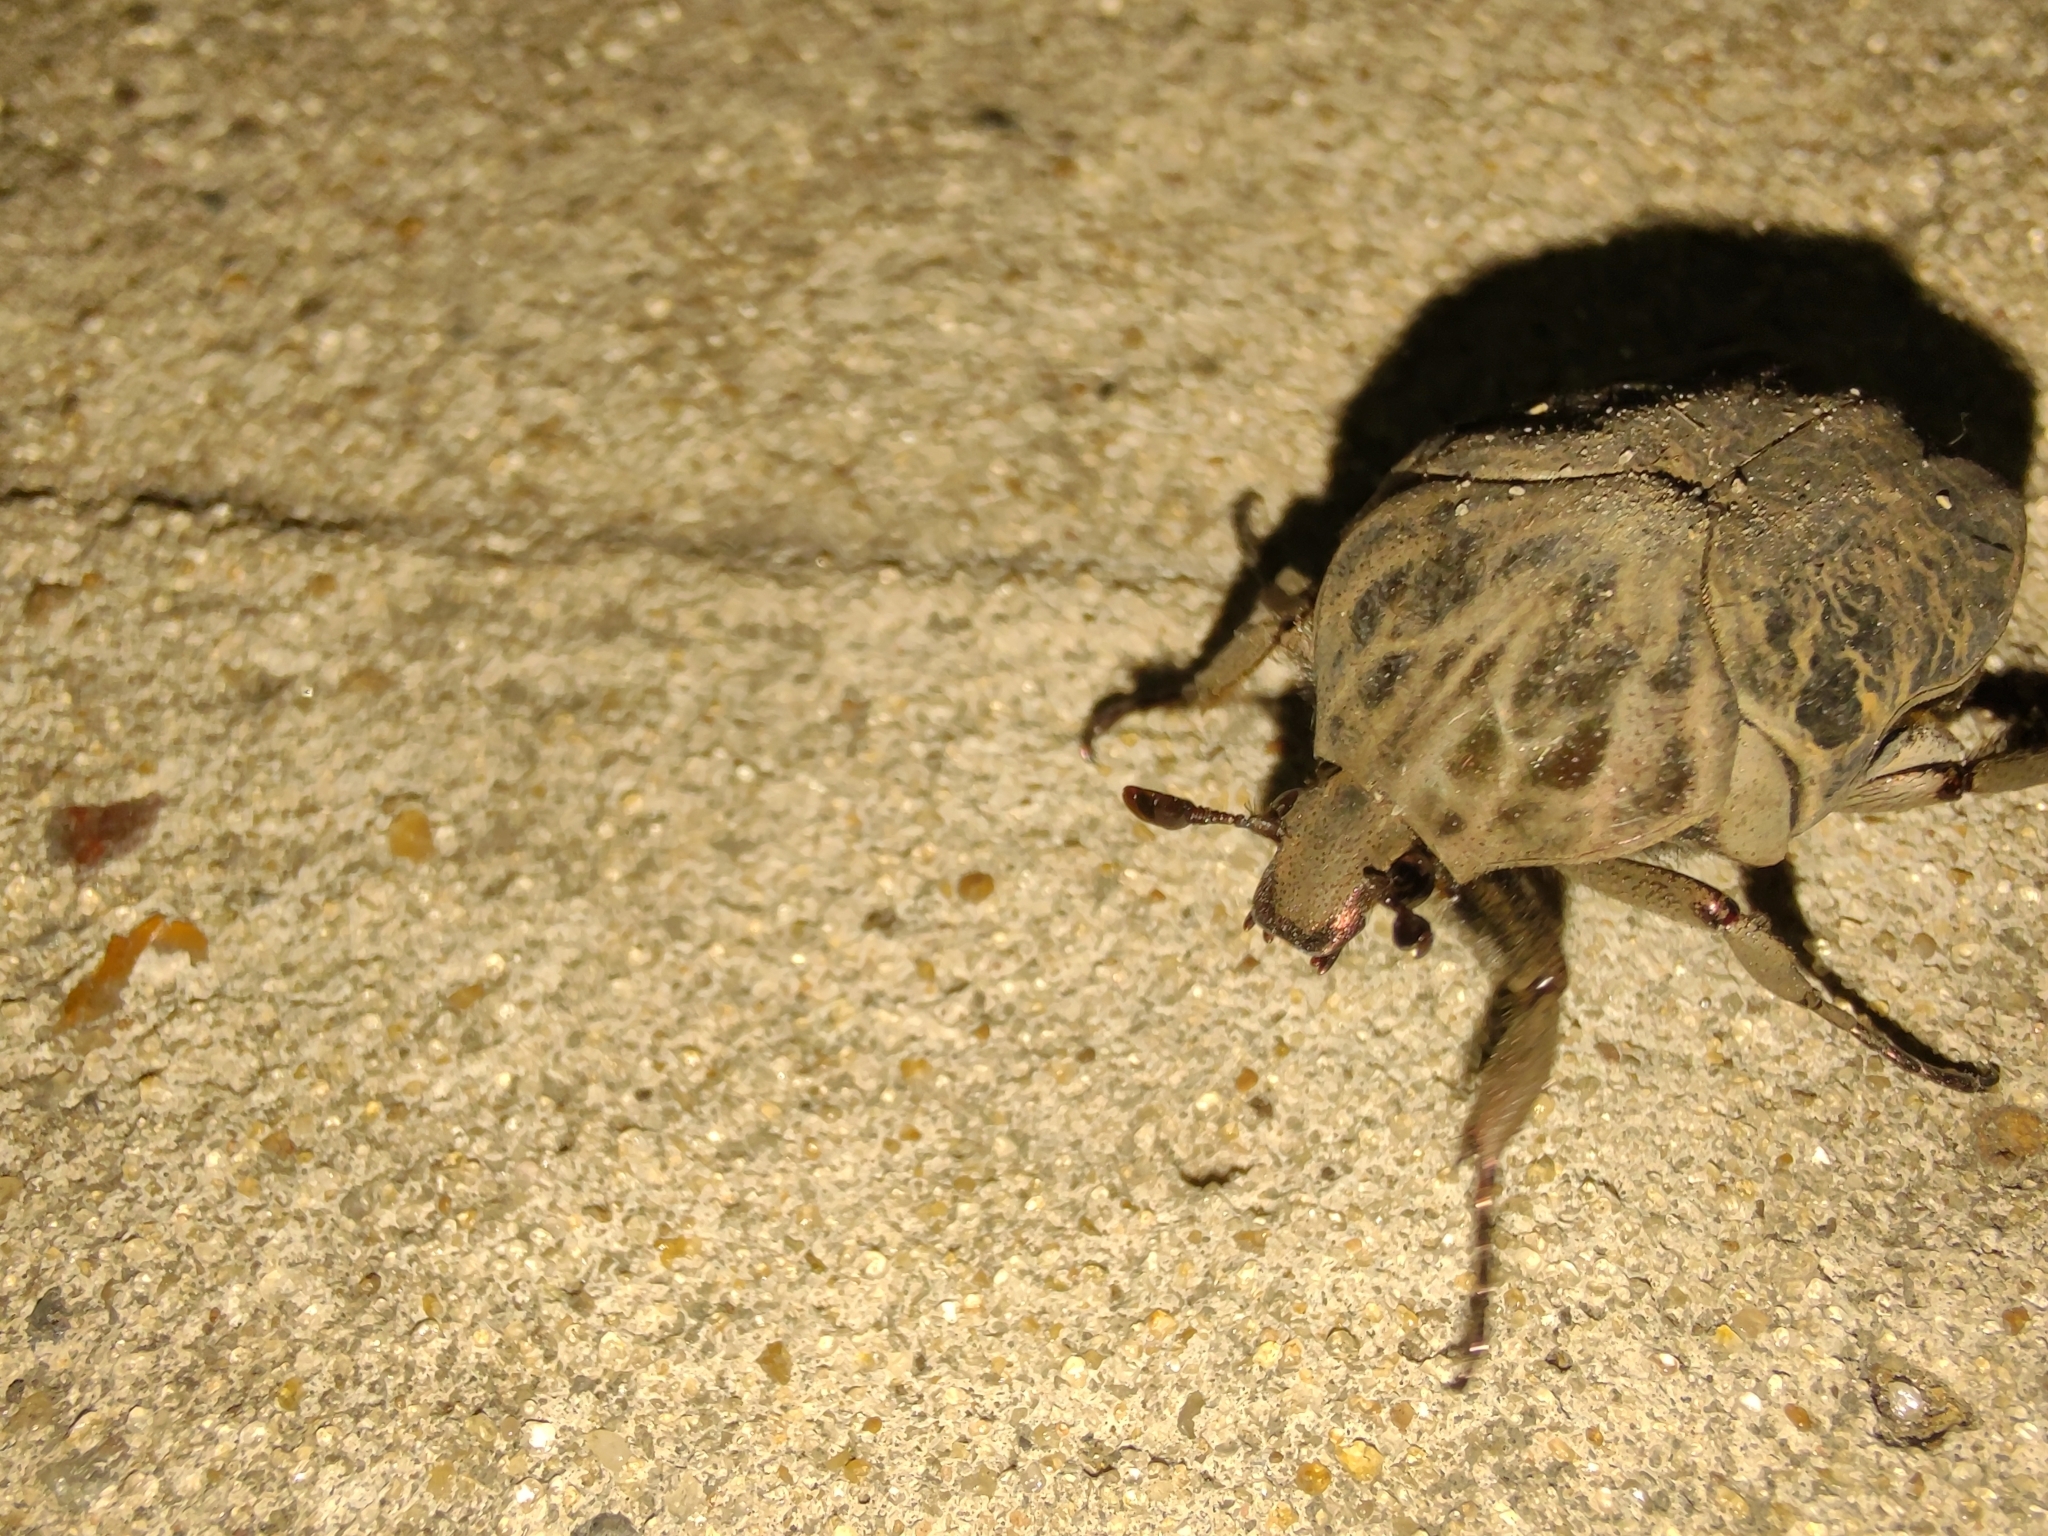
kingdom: Animalia
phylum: Arthropoda
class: Insecta
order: Coleoptera
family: Scarabaeidae
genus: Gymnetis
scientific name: Gymnetis chalcipes
